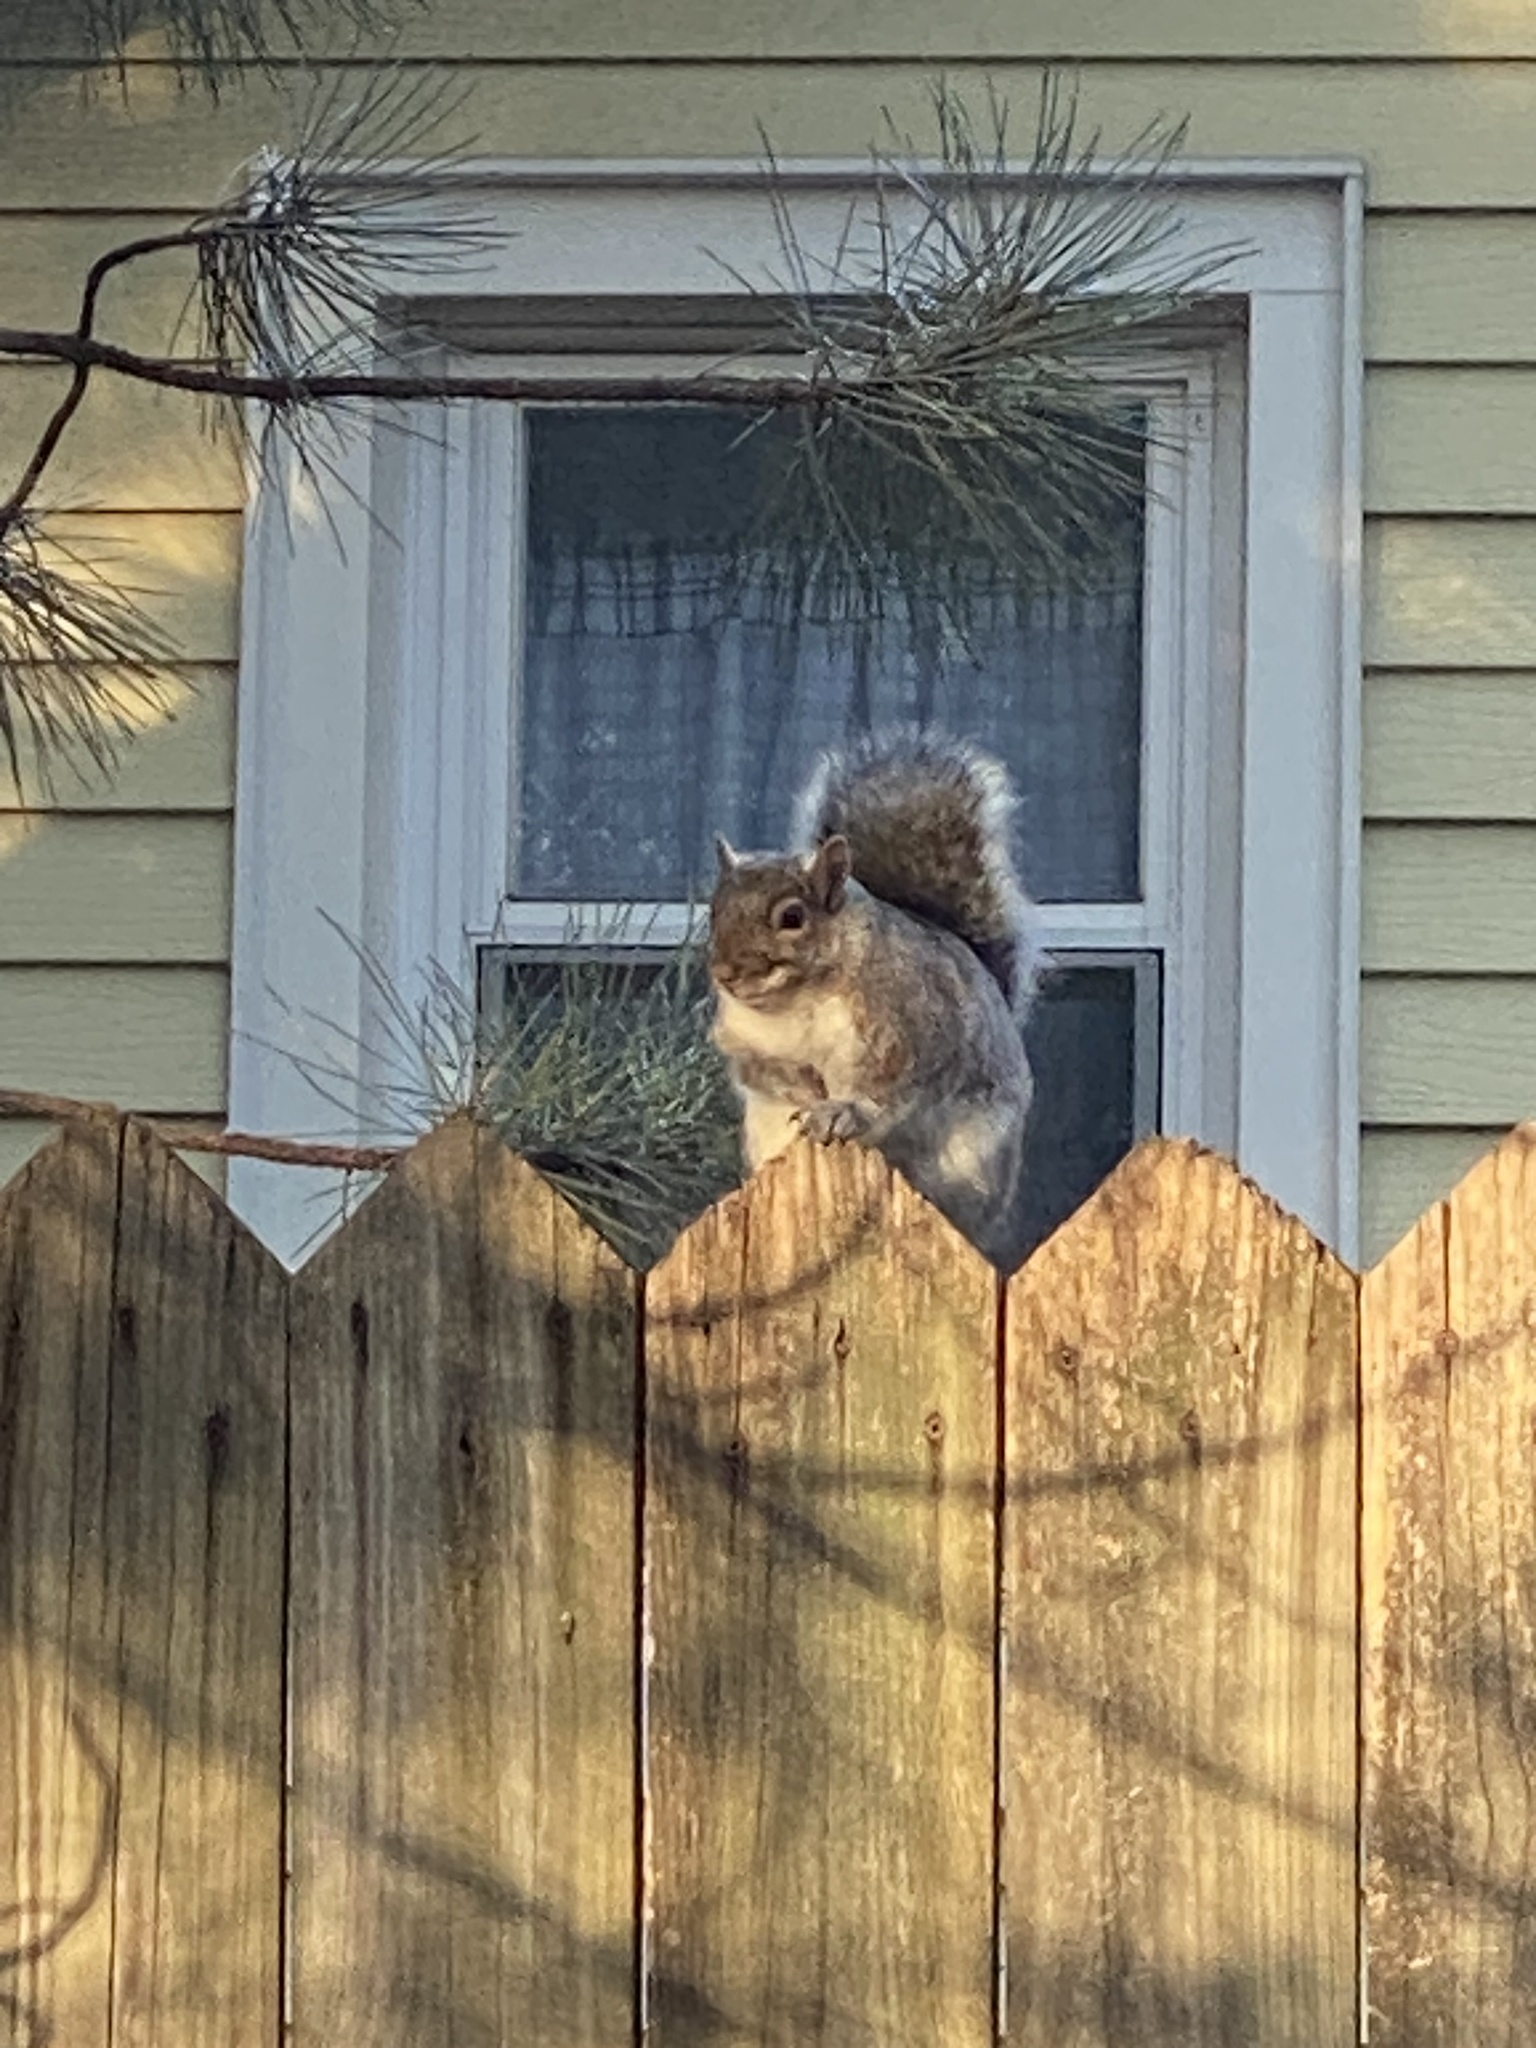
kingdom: Animalia
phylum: Chordata
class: Mammalia
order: Rodentia
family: Sciuridae
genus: Sciurus
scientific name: Sciurus carolinensis
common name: Eastern gray squirrel
